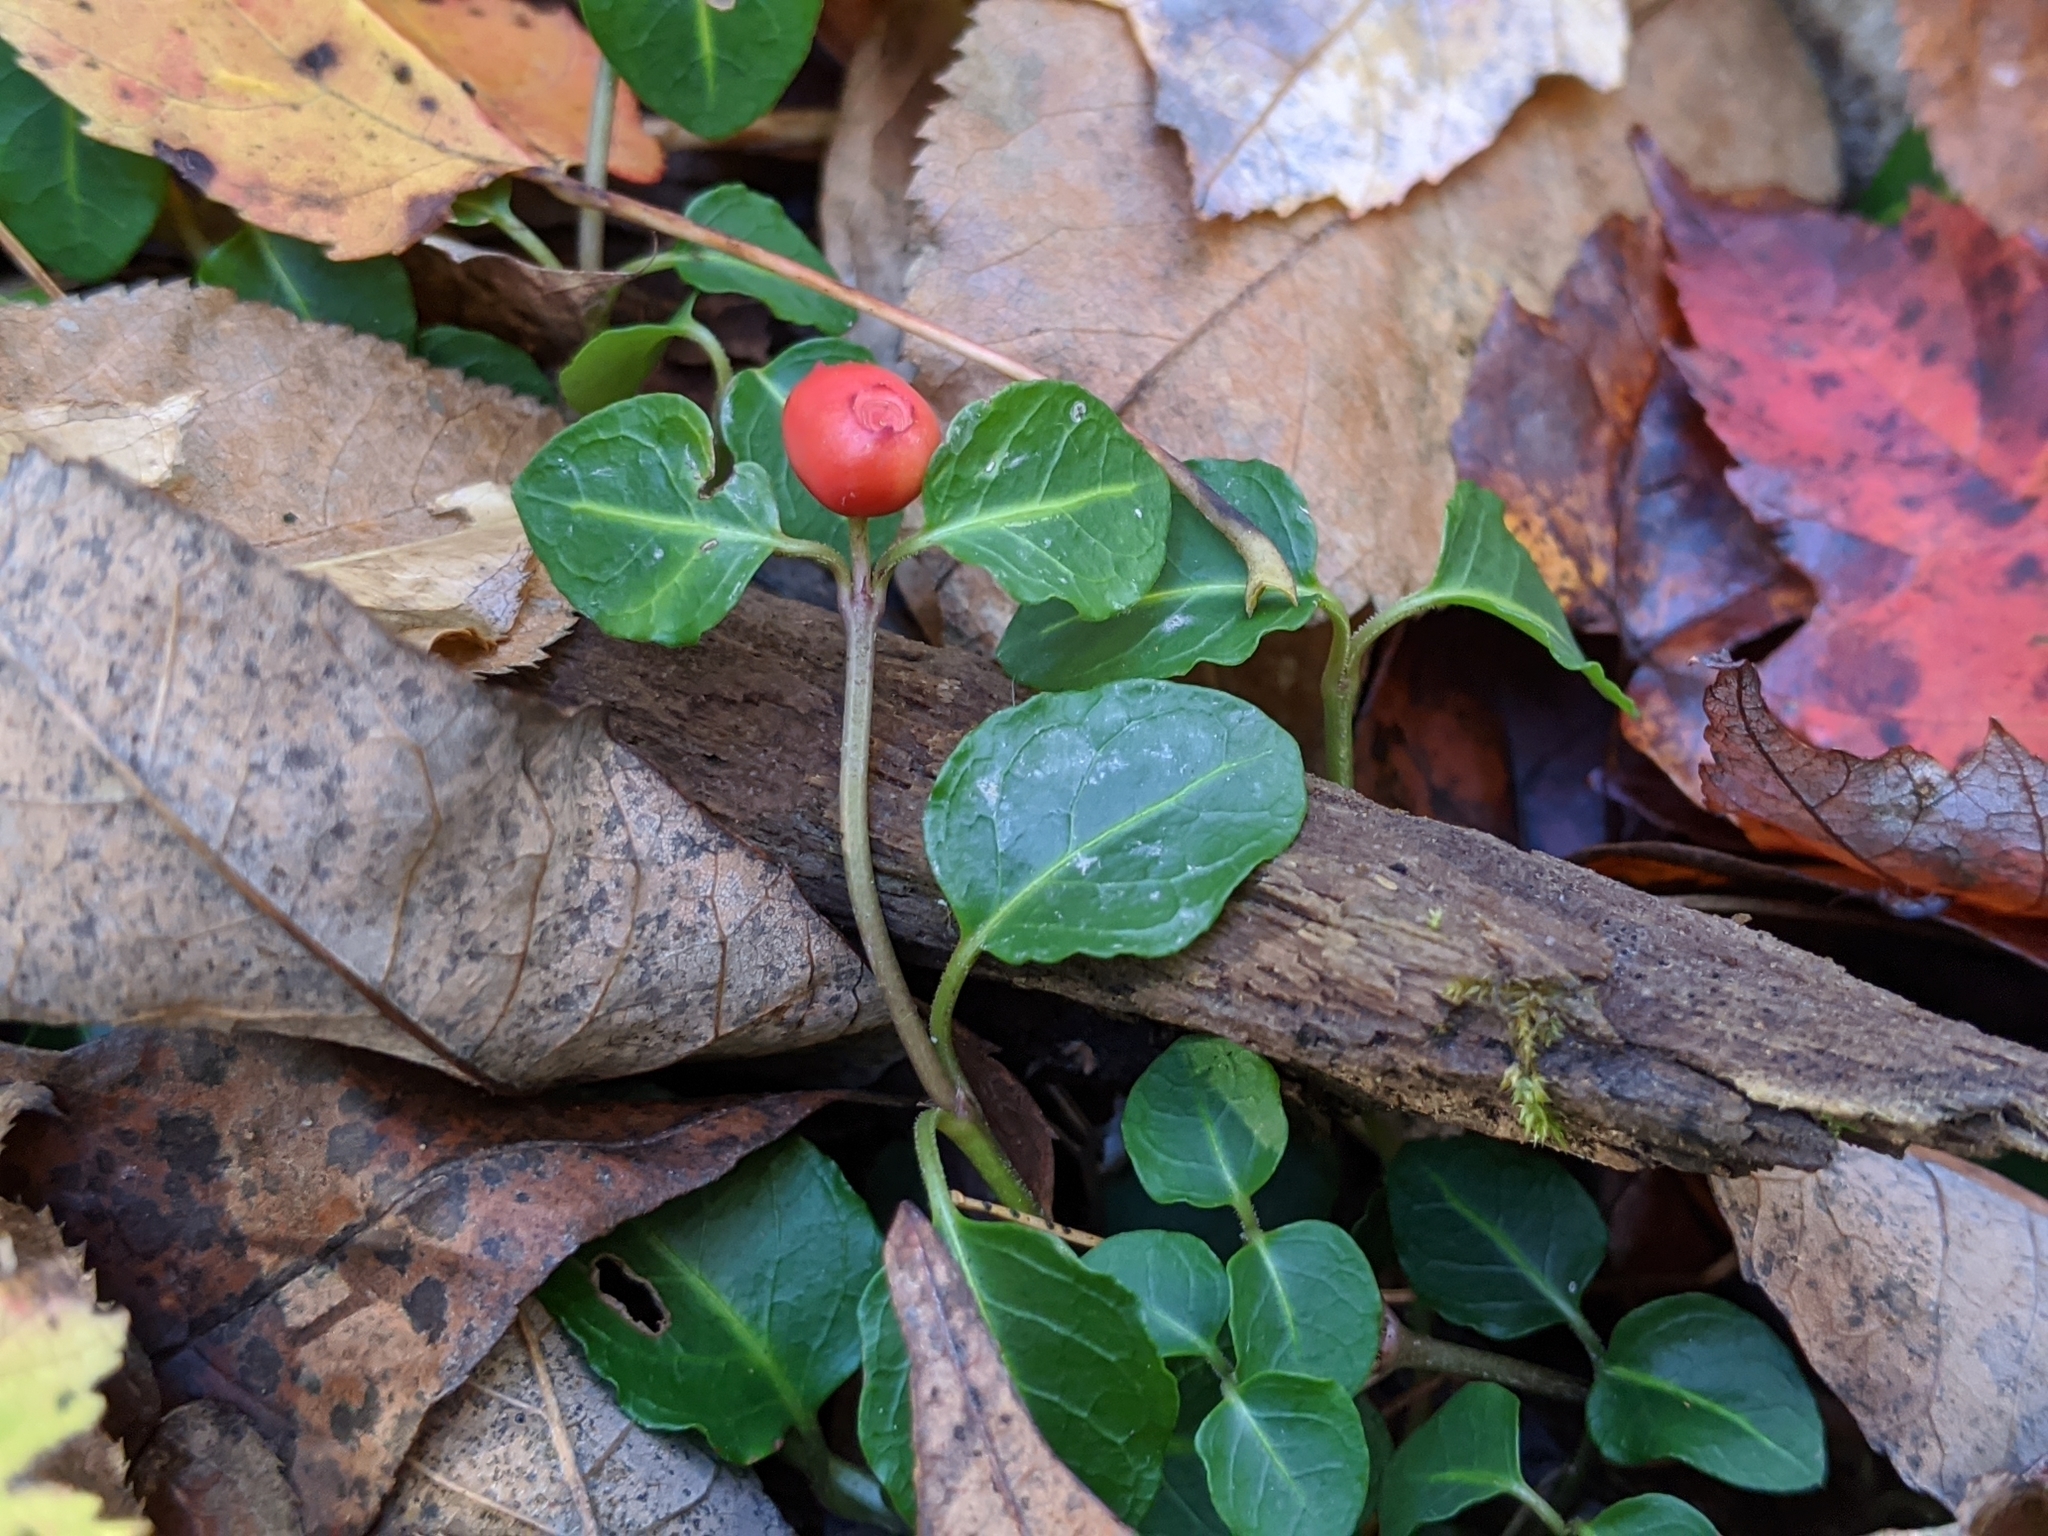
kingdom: Plantae
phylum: Tracheophyta
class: Magnoliopsida
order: Gentianales
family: Rubiaceae
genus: Mitchella
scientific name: Mitchella repens
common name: Partridge-berry
